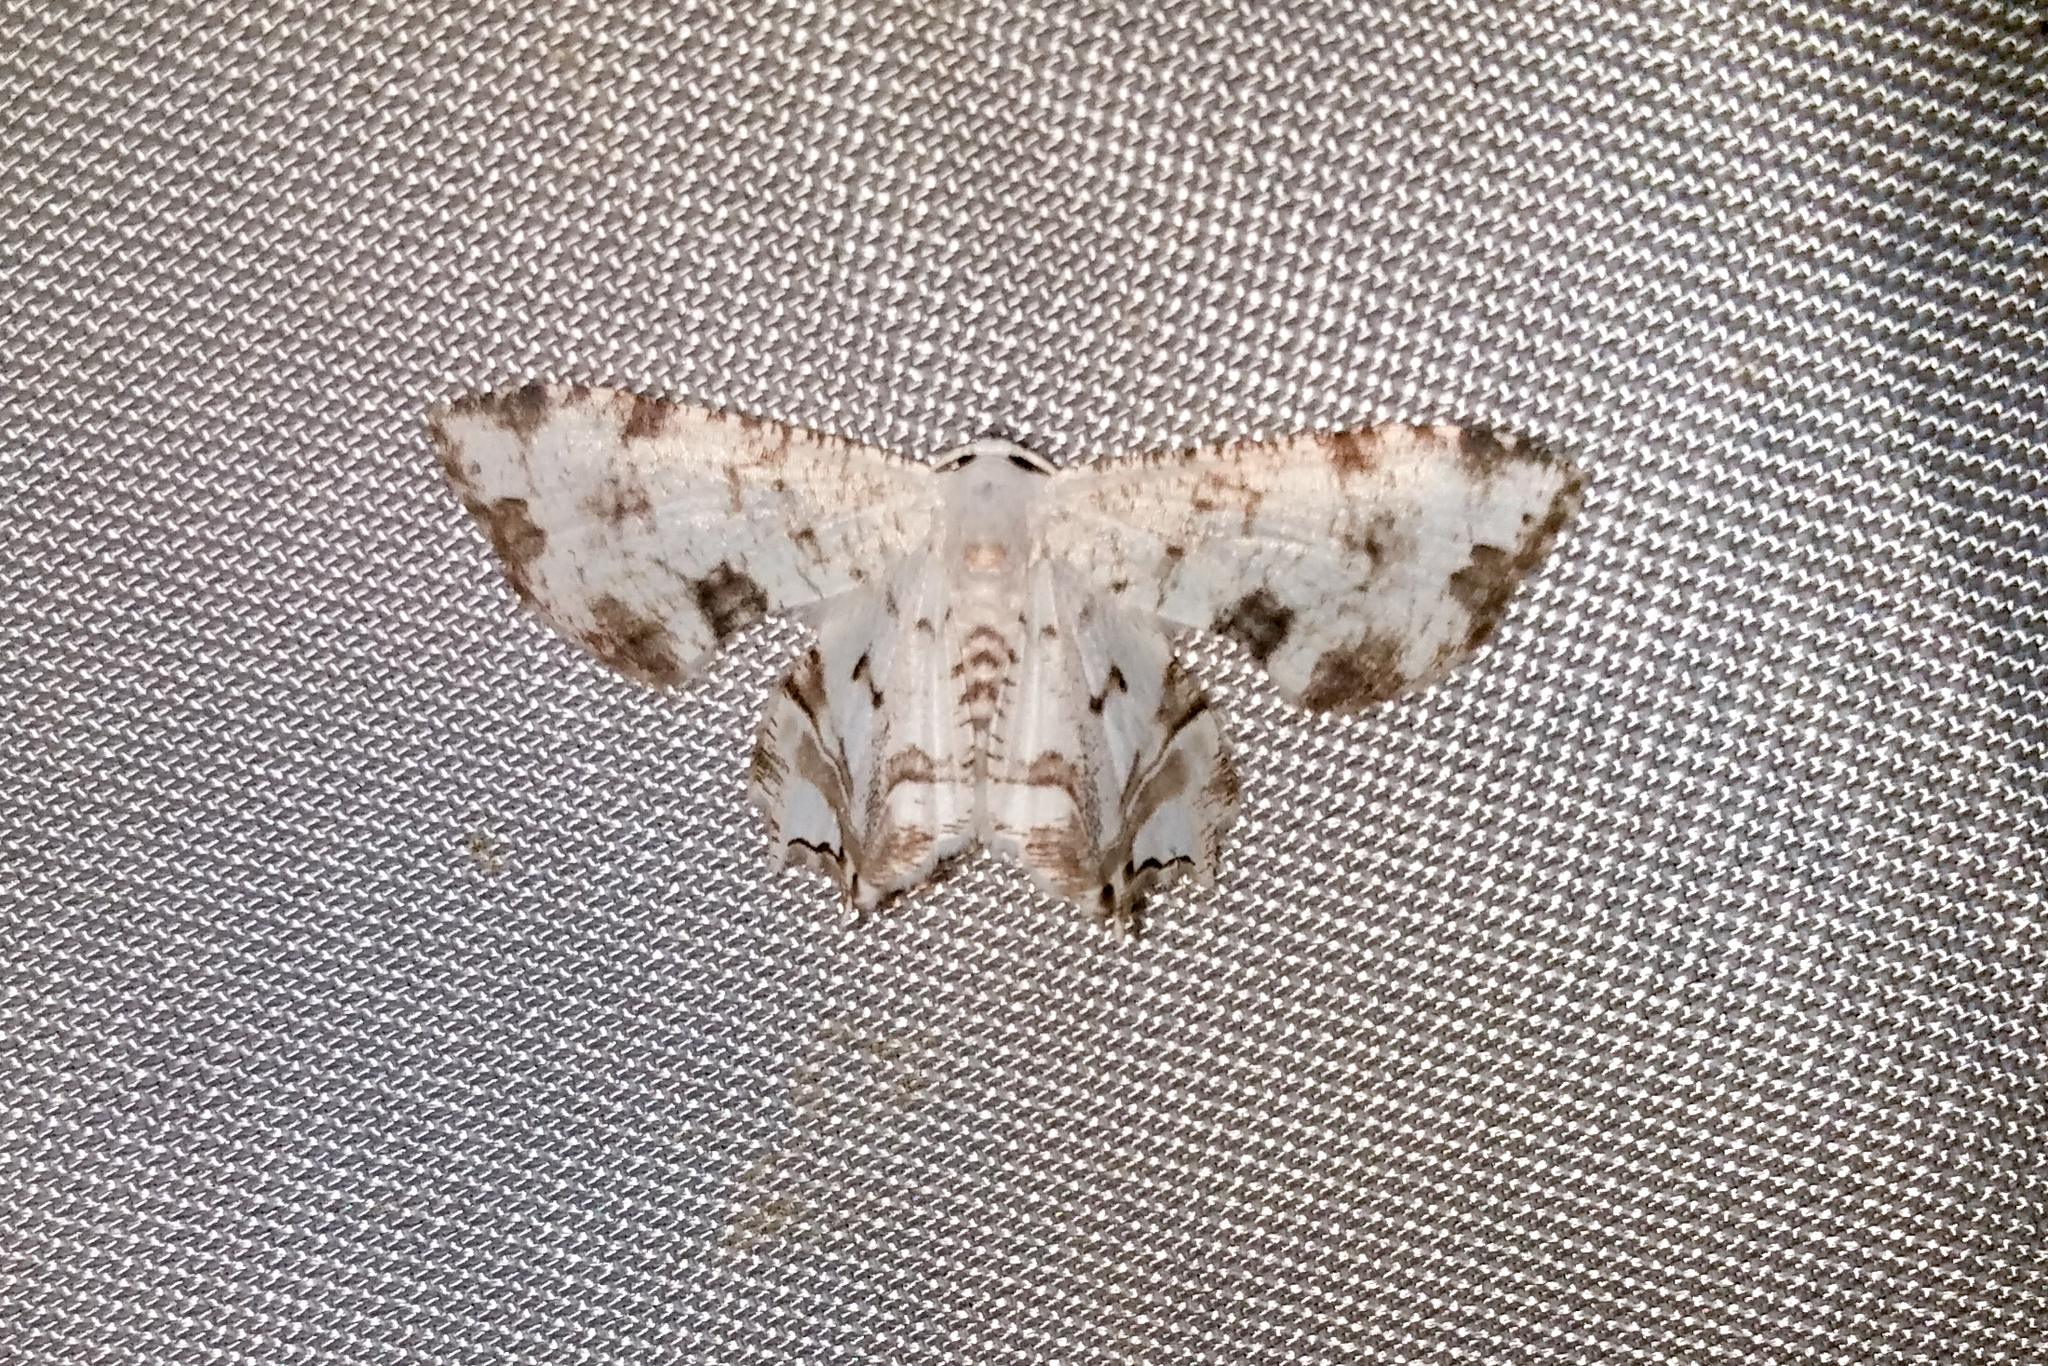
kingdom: Animalia
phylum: Arthropoda
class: Insecta
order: Lepidoptera
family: Uraniidae
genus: Dysaethria
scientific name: Dysaethria conflictaria
